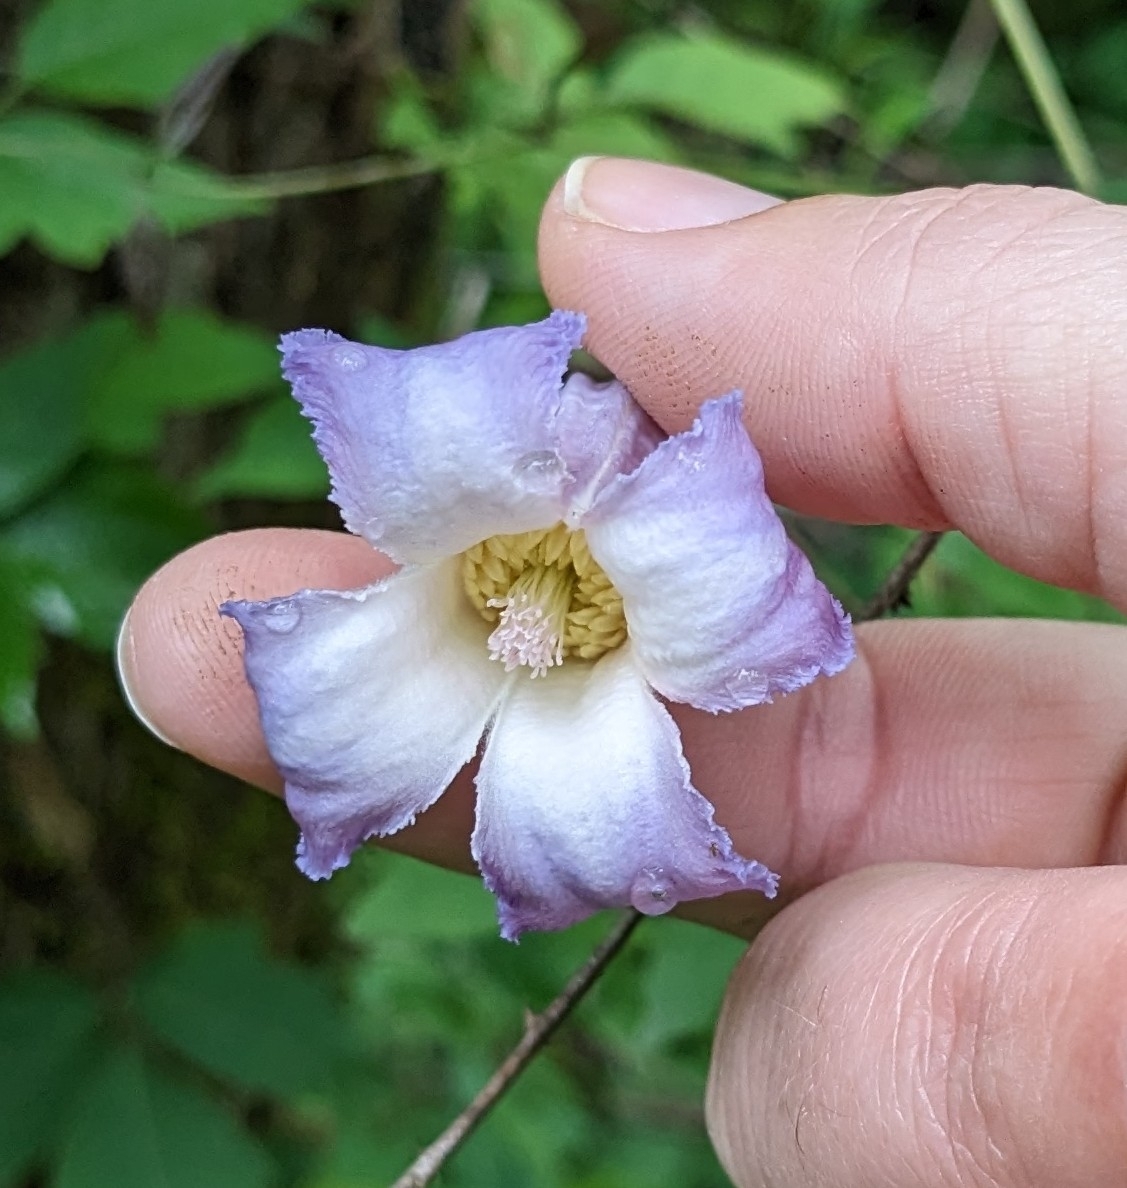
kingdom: Plantae
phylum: Tracheophyta
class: Magnoliopsida
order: Ranunculales
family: Ranunculaceae
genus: Clematis
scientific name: Clematis crispa
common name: Curly clematis
